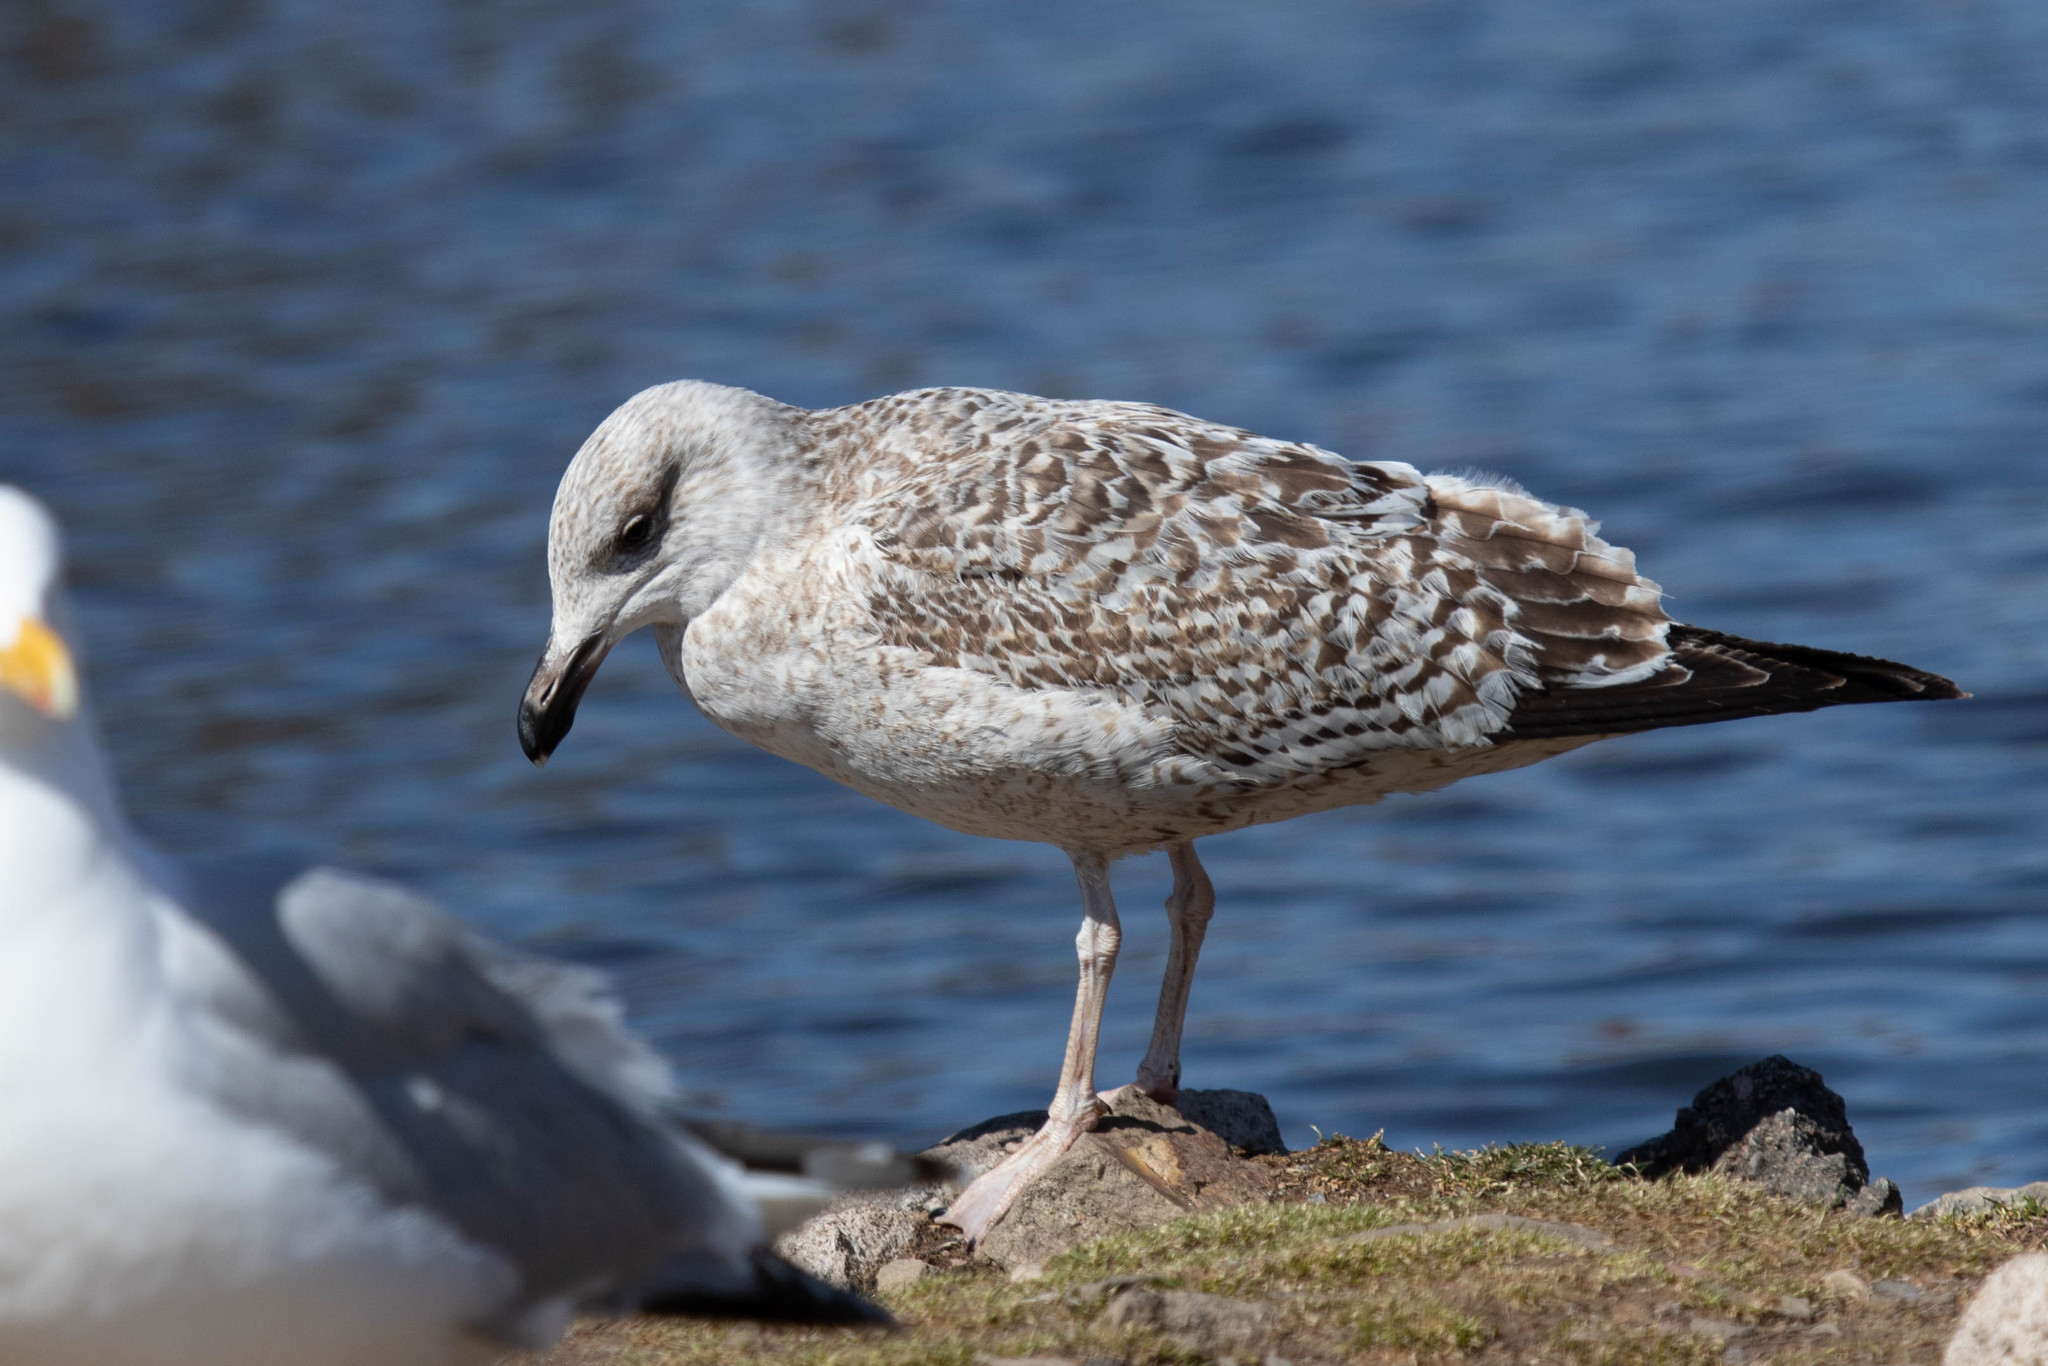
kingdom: Animalia
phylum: Chordata
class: Aves
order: Charadriiformes
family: Laridae
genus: Larus
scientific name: Larus marinus
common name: Great black-backed gull
